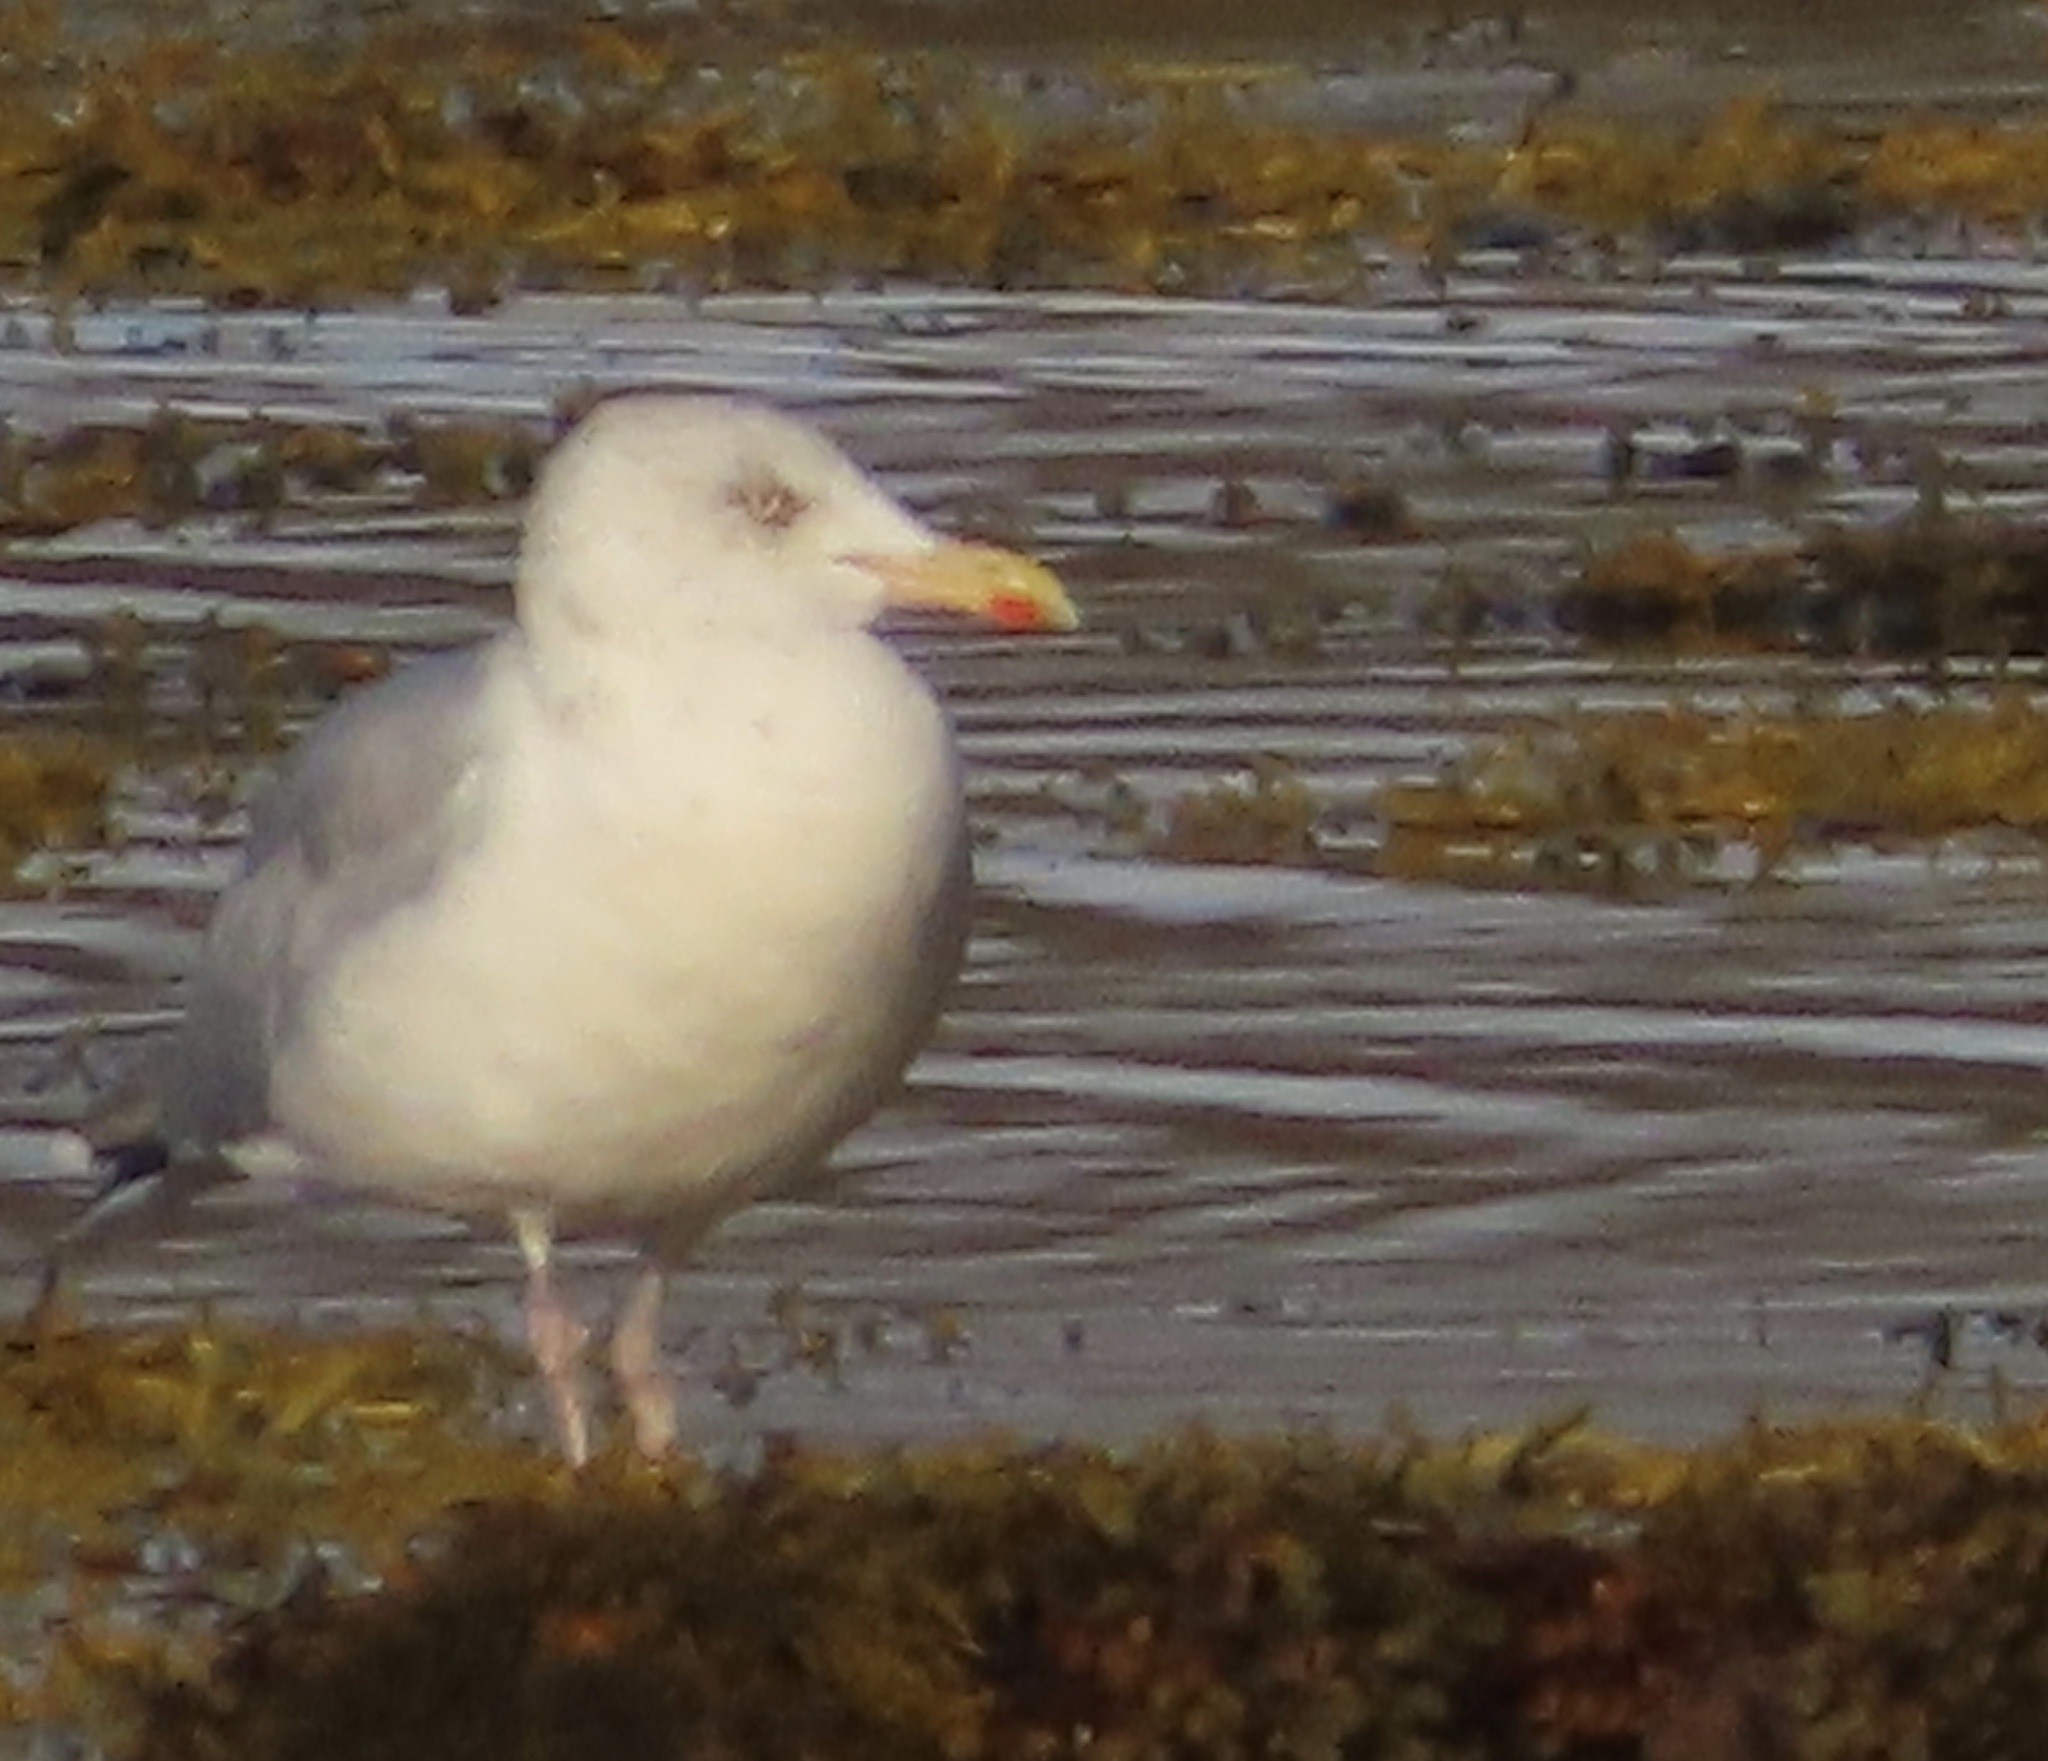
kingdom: Animalia
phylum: Chordata
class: Aves
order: Charadriiformes
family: Laridae
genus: Larus
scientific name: Larus argentatus
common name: Herring gull
